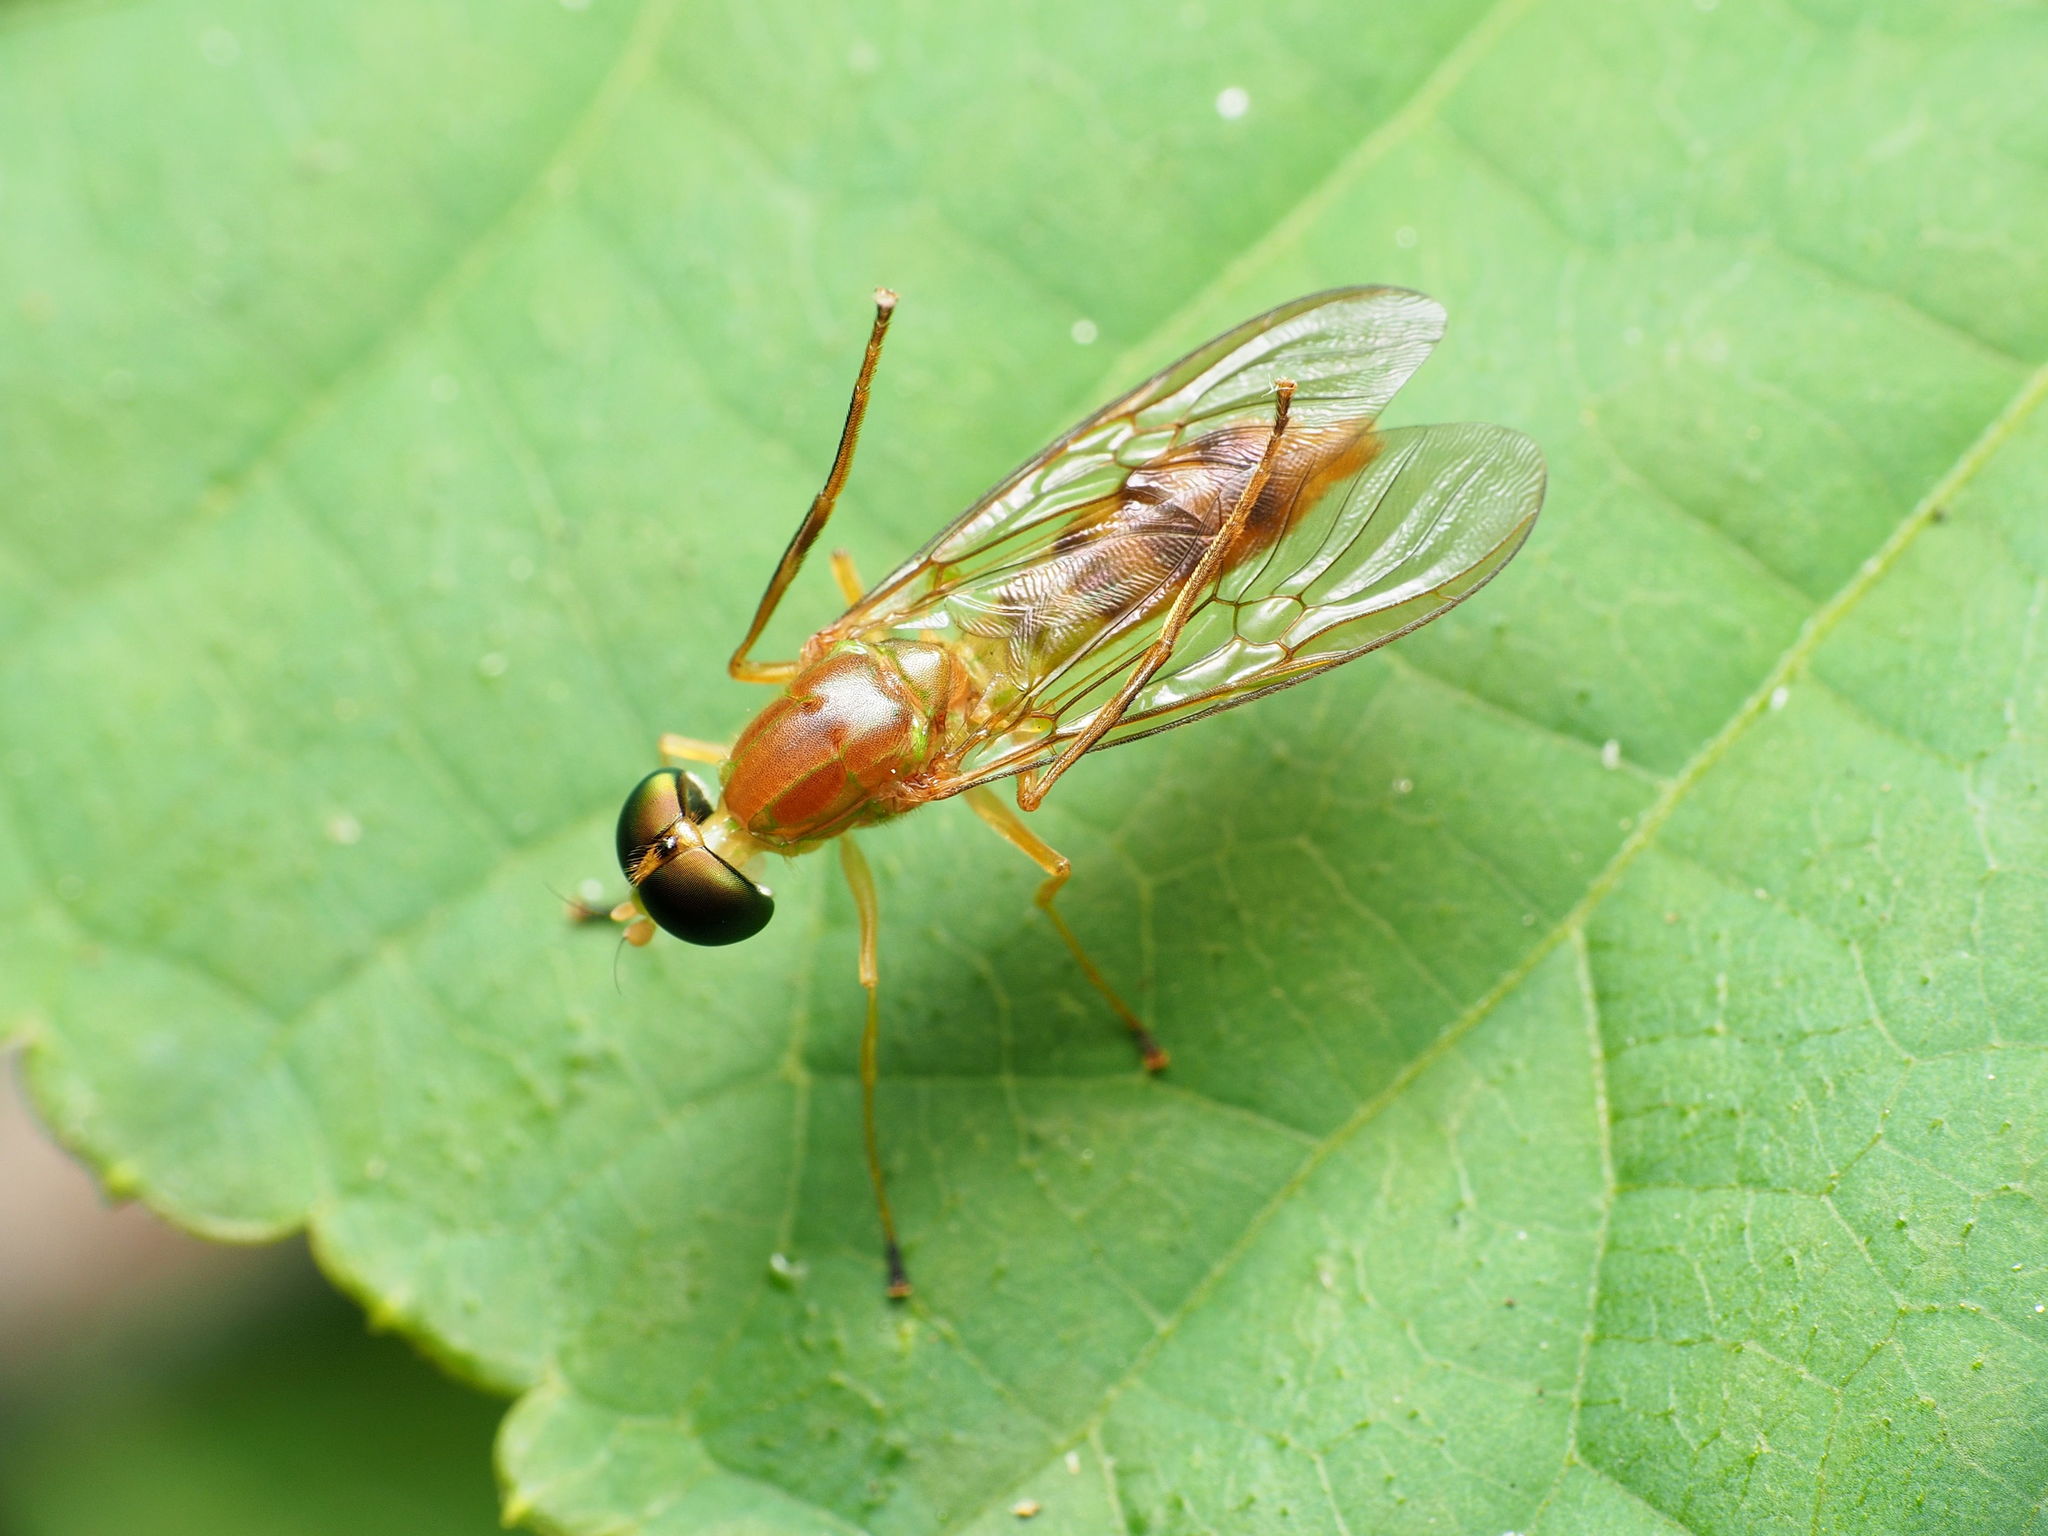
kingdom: Animalia
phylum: Arthropoda
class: Insecta
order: Diptera
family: Stratiomyidae
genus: Ptecticus
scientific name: Ptecticus trivittatus
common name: Compost fly
